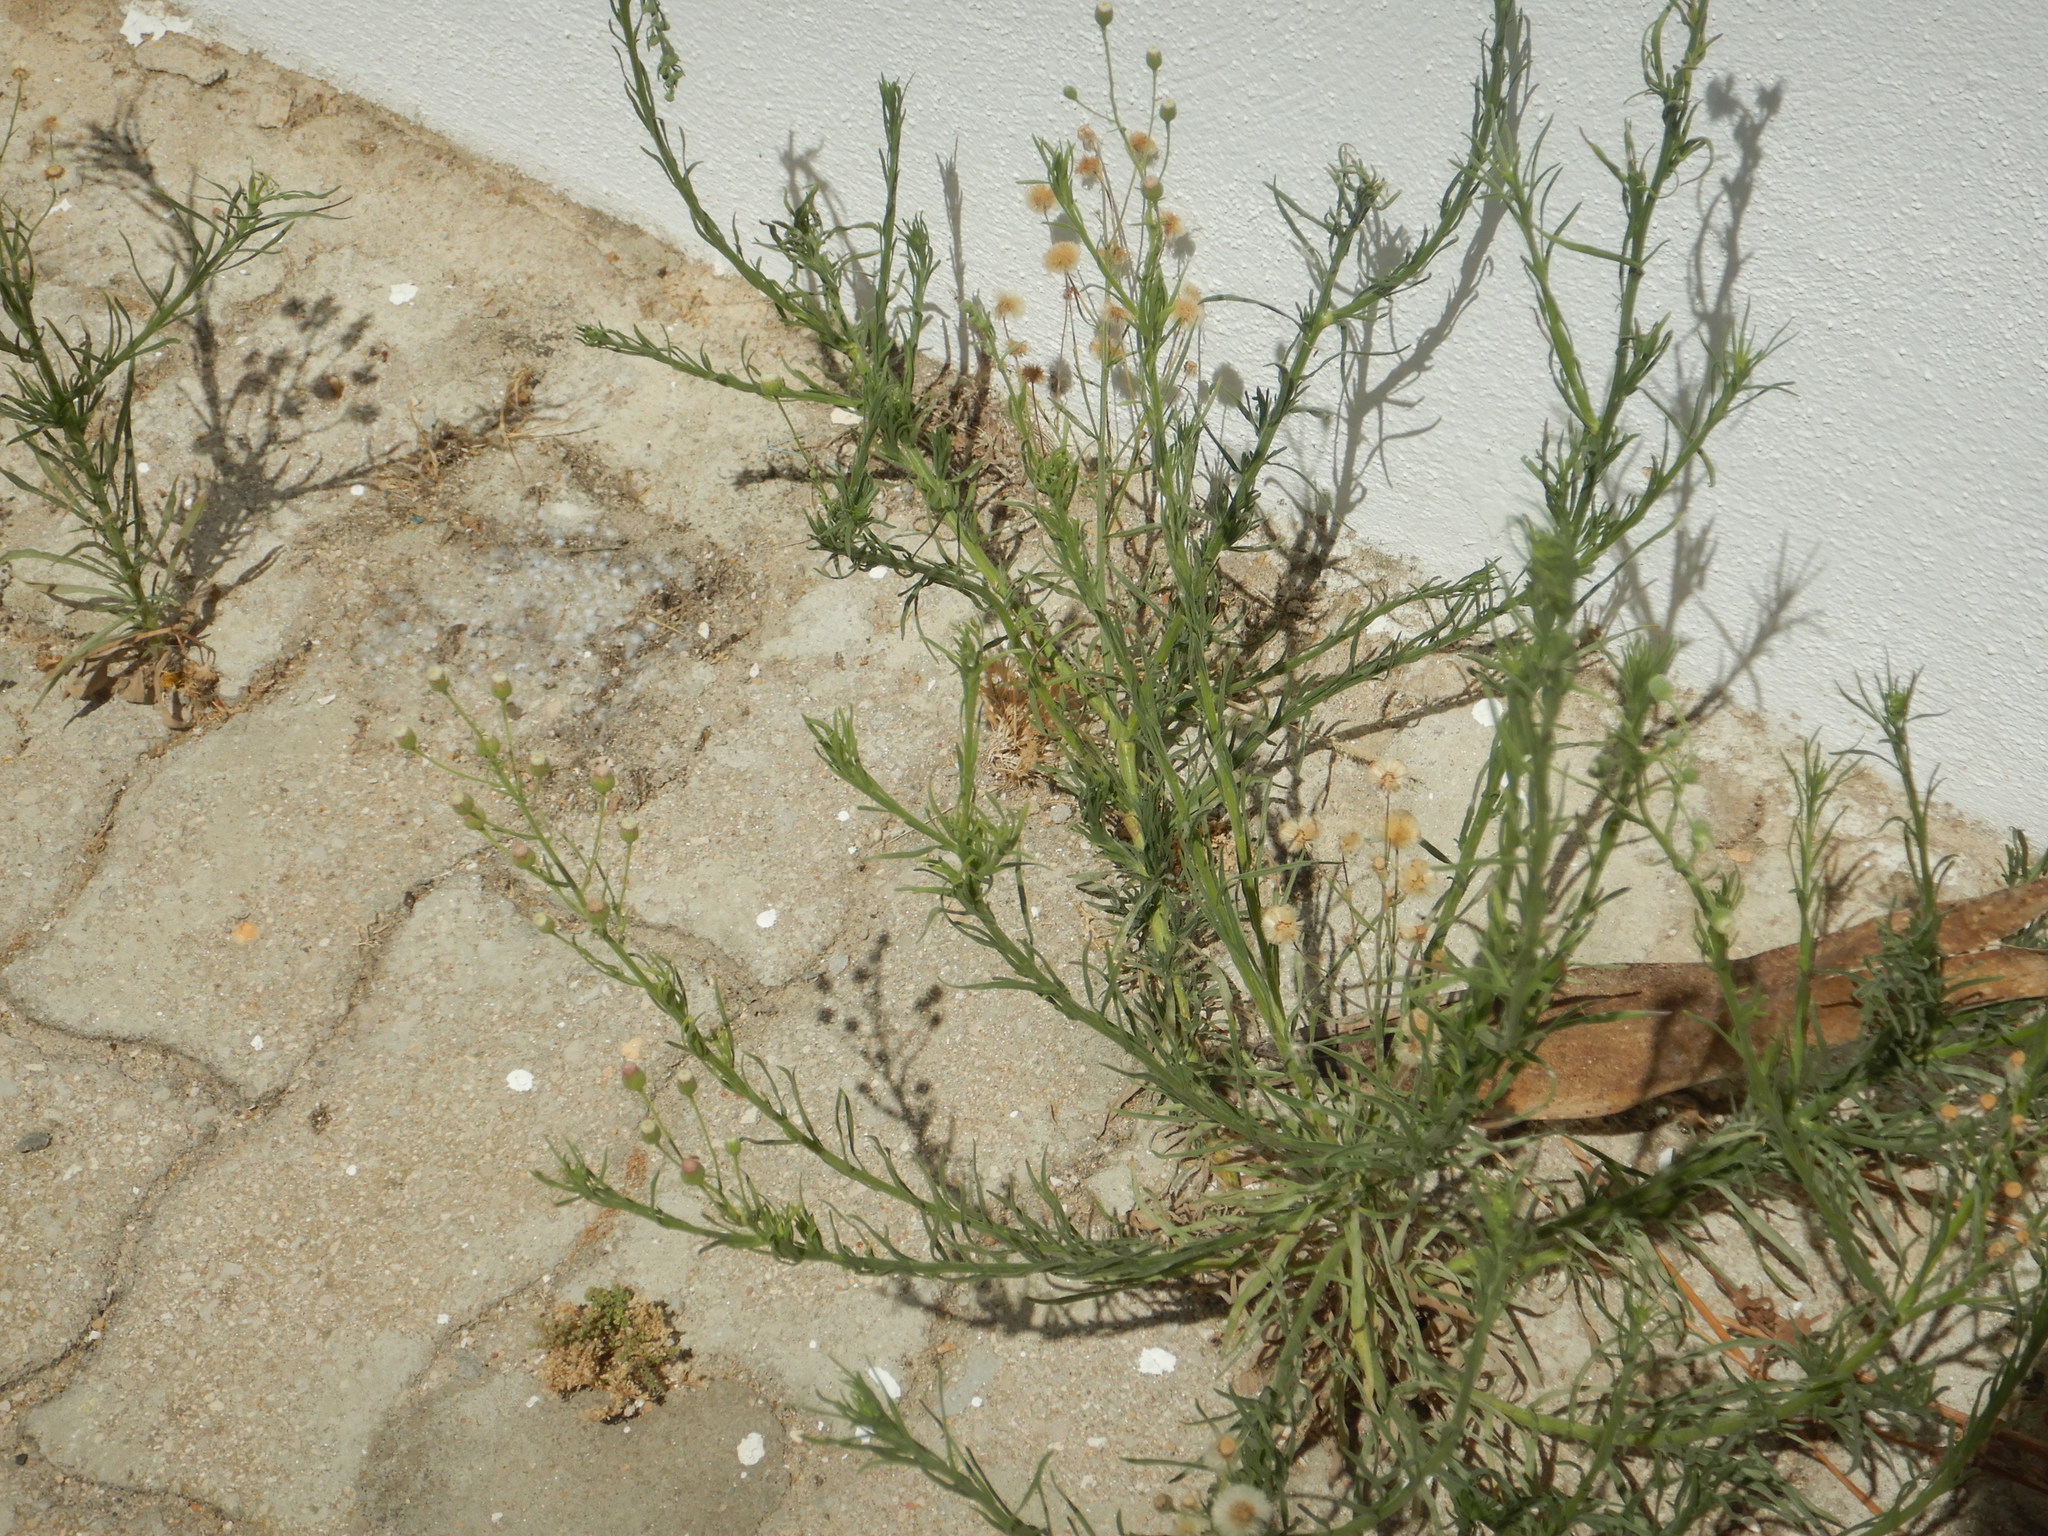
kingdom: Plantae
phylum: Tracheophyta
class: Magnoliopsida
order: Asterales
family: Asteraceae
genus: Erigeron
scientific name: Erigeron bonariensis
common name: Argentine fleabane
